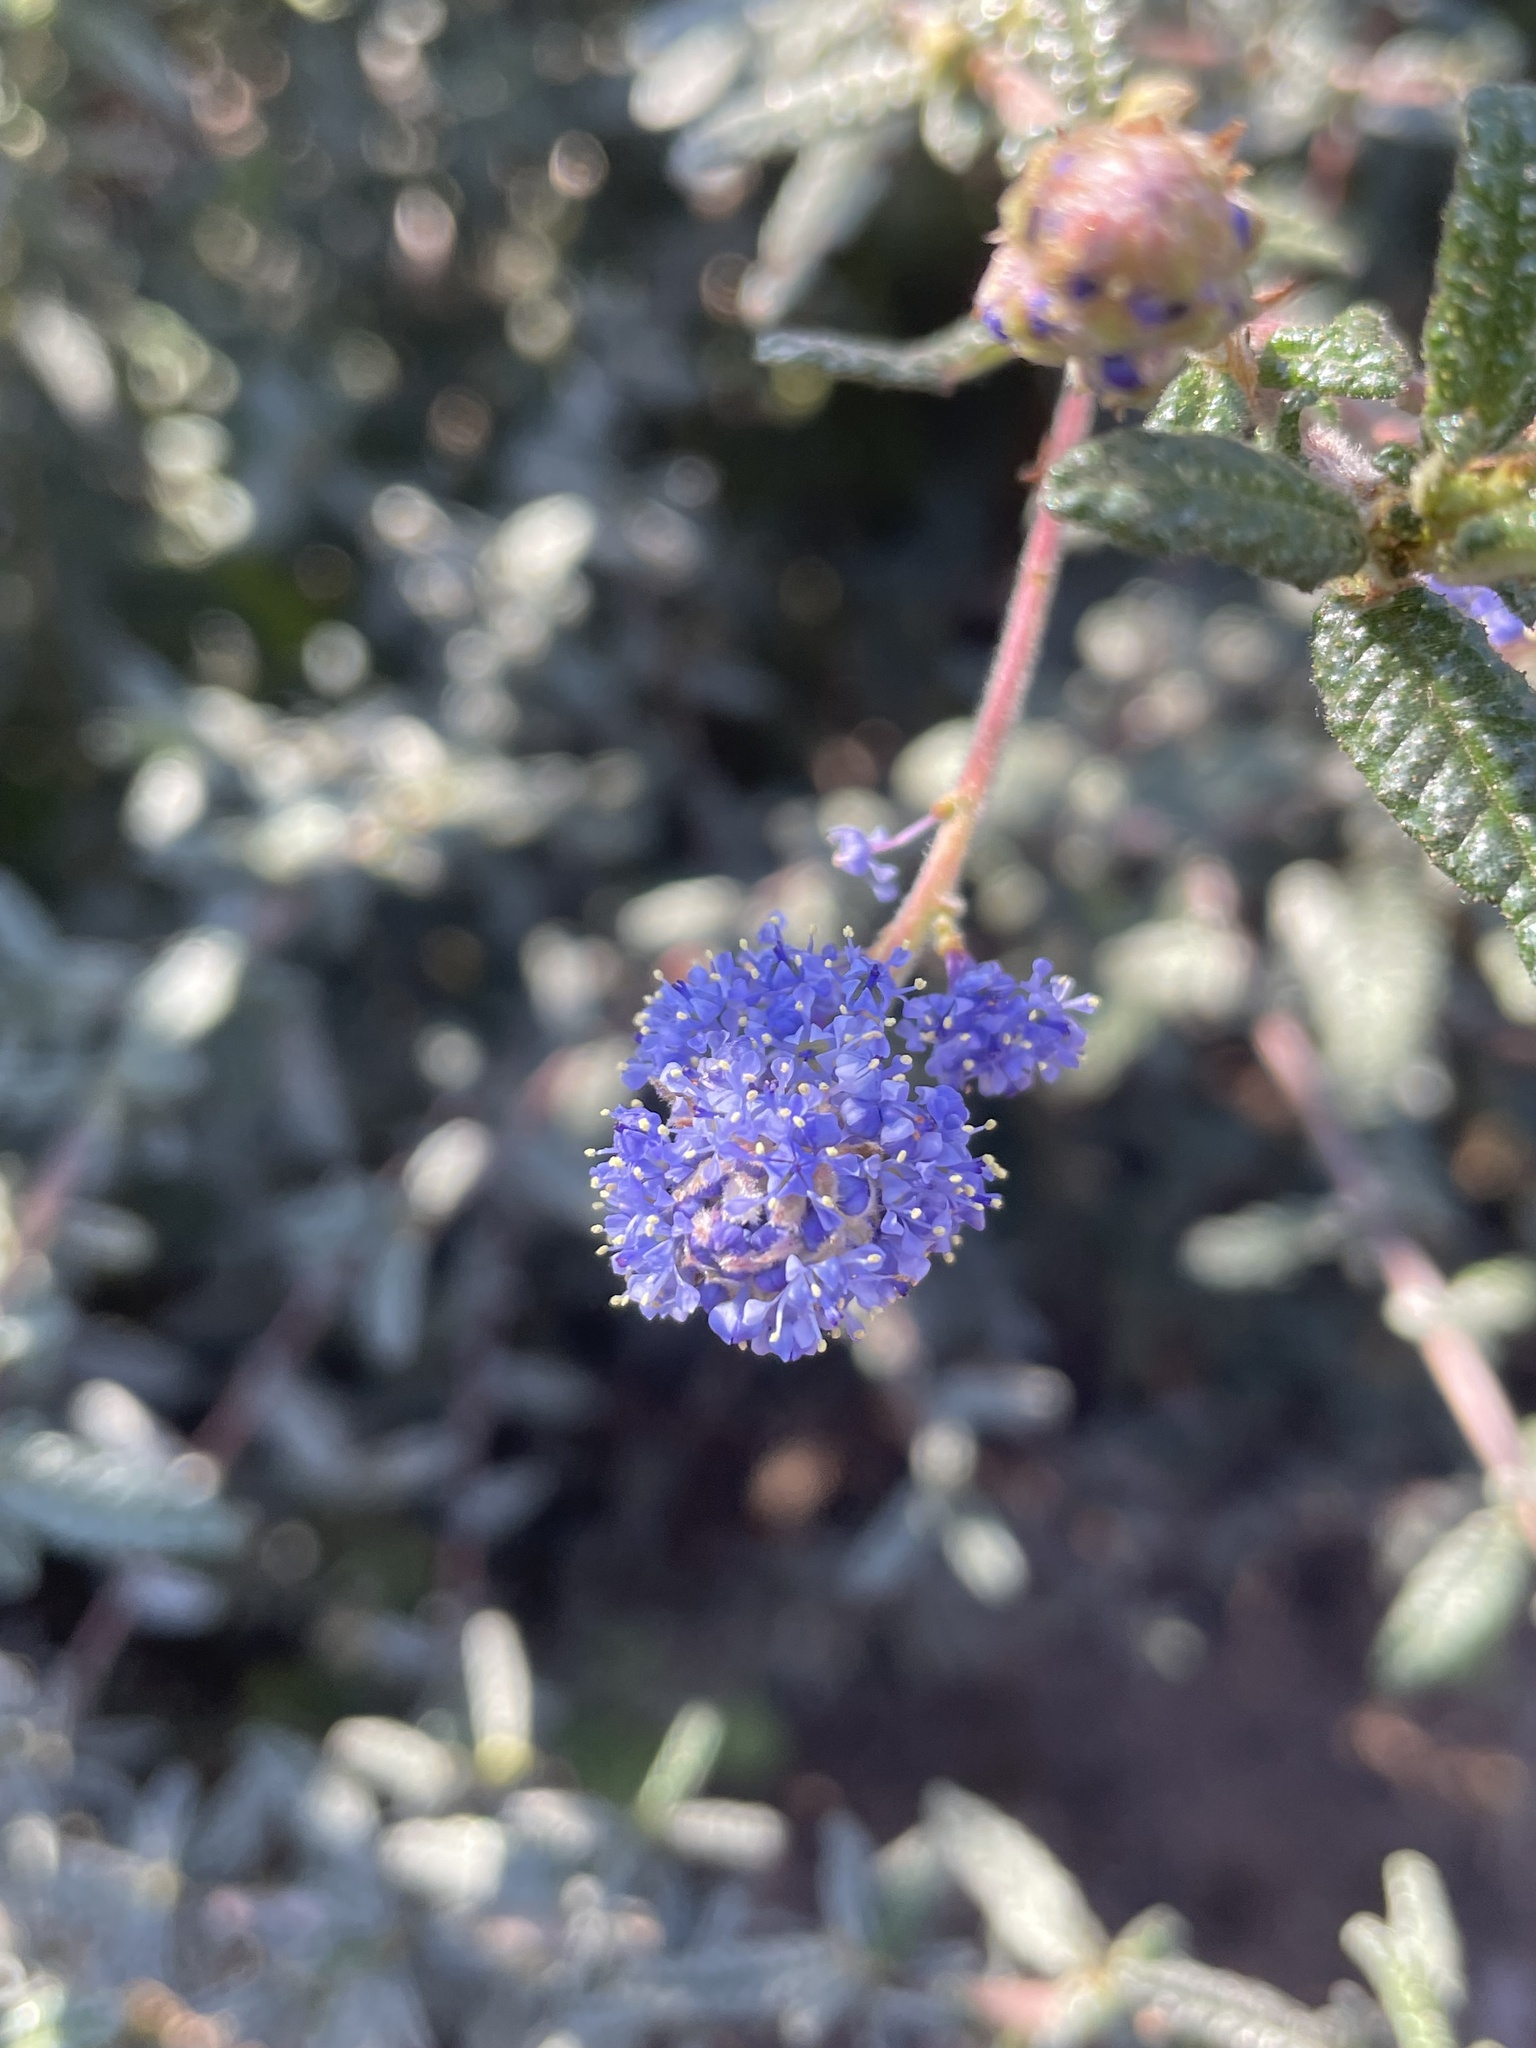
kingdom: Plantae
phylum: Tracheophyta
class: Magnoliopsida
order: Rosales
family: Rhamnaceae
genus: Ceanothus
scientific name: Ceanothus papillosus
